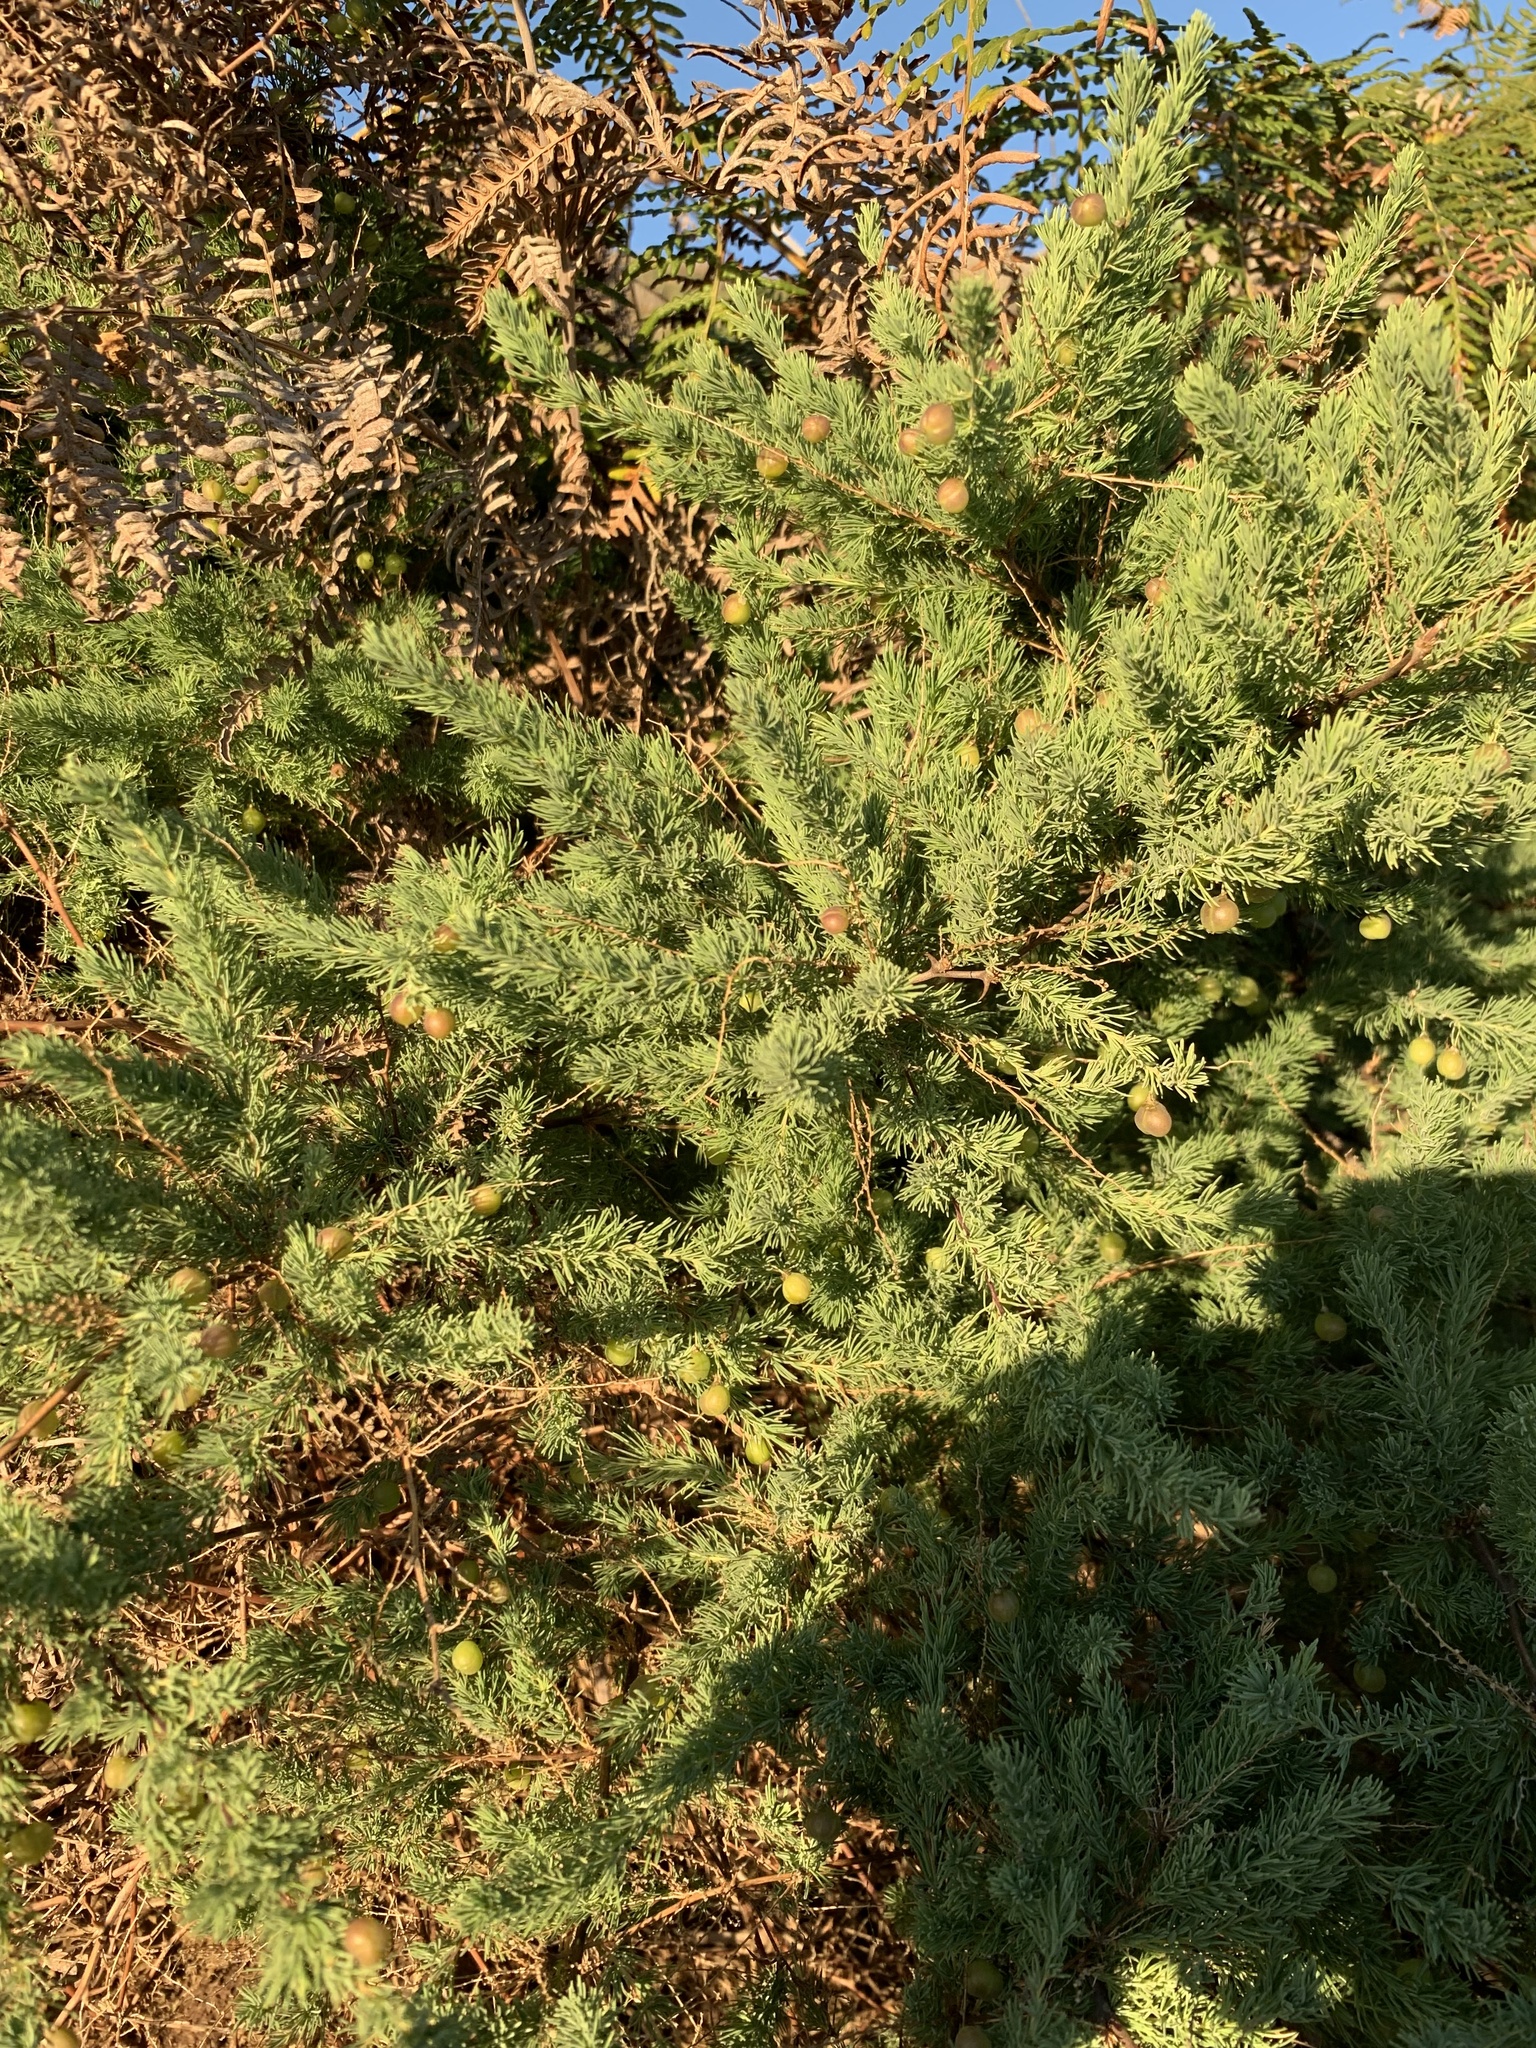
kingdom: Plantae
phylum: Tracheophyta
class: Liliopsida
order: Asparagales
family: Asparagaceae
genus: Asparagus
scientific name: Asparagus rubicundus
